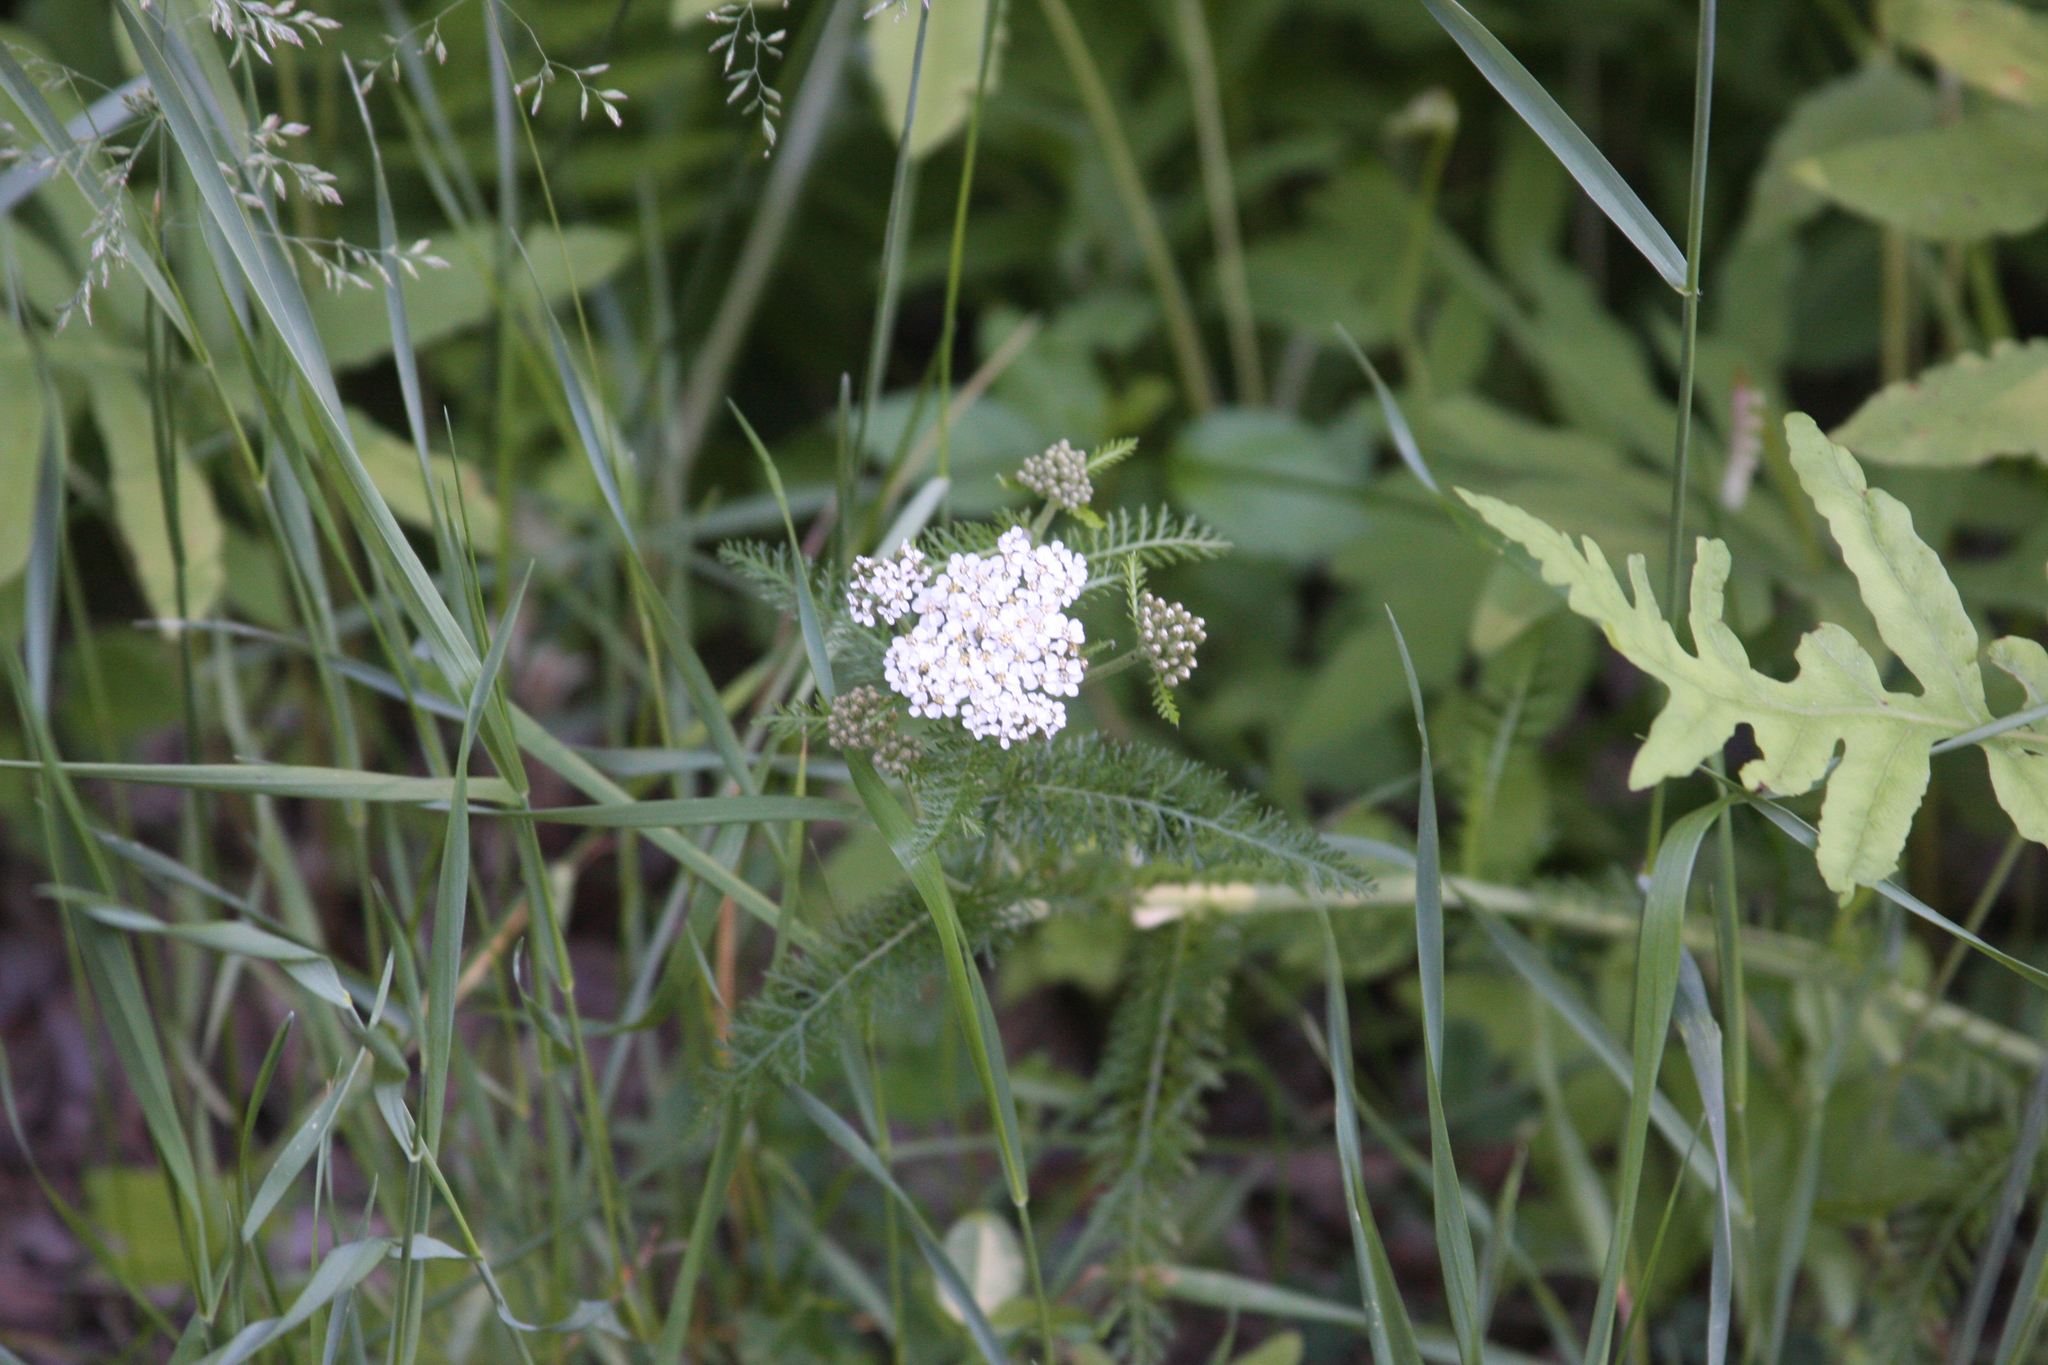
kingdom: Plantae
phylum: Tracheophyta
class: Magnoliopsida
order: Asterales
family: Asteraceae
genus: Achillea
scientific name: Achillea millefolium
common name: Yarrow
